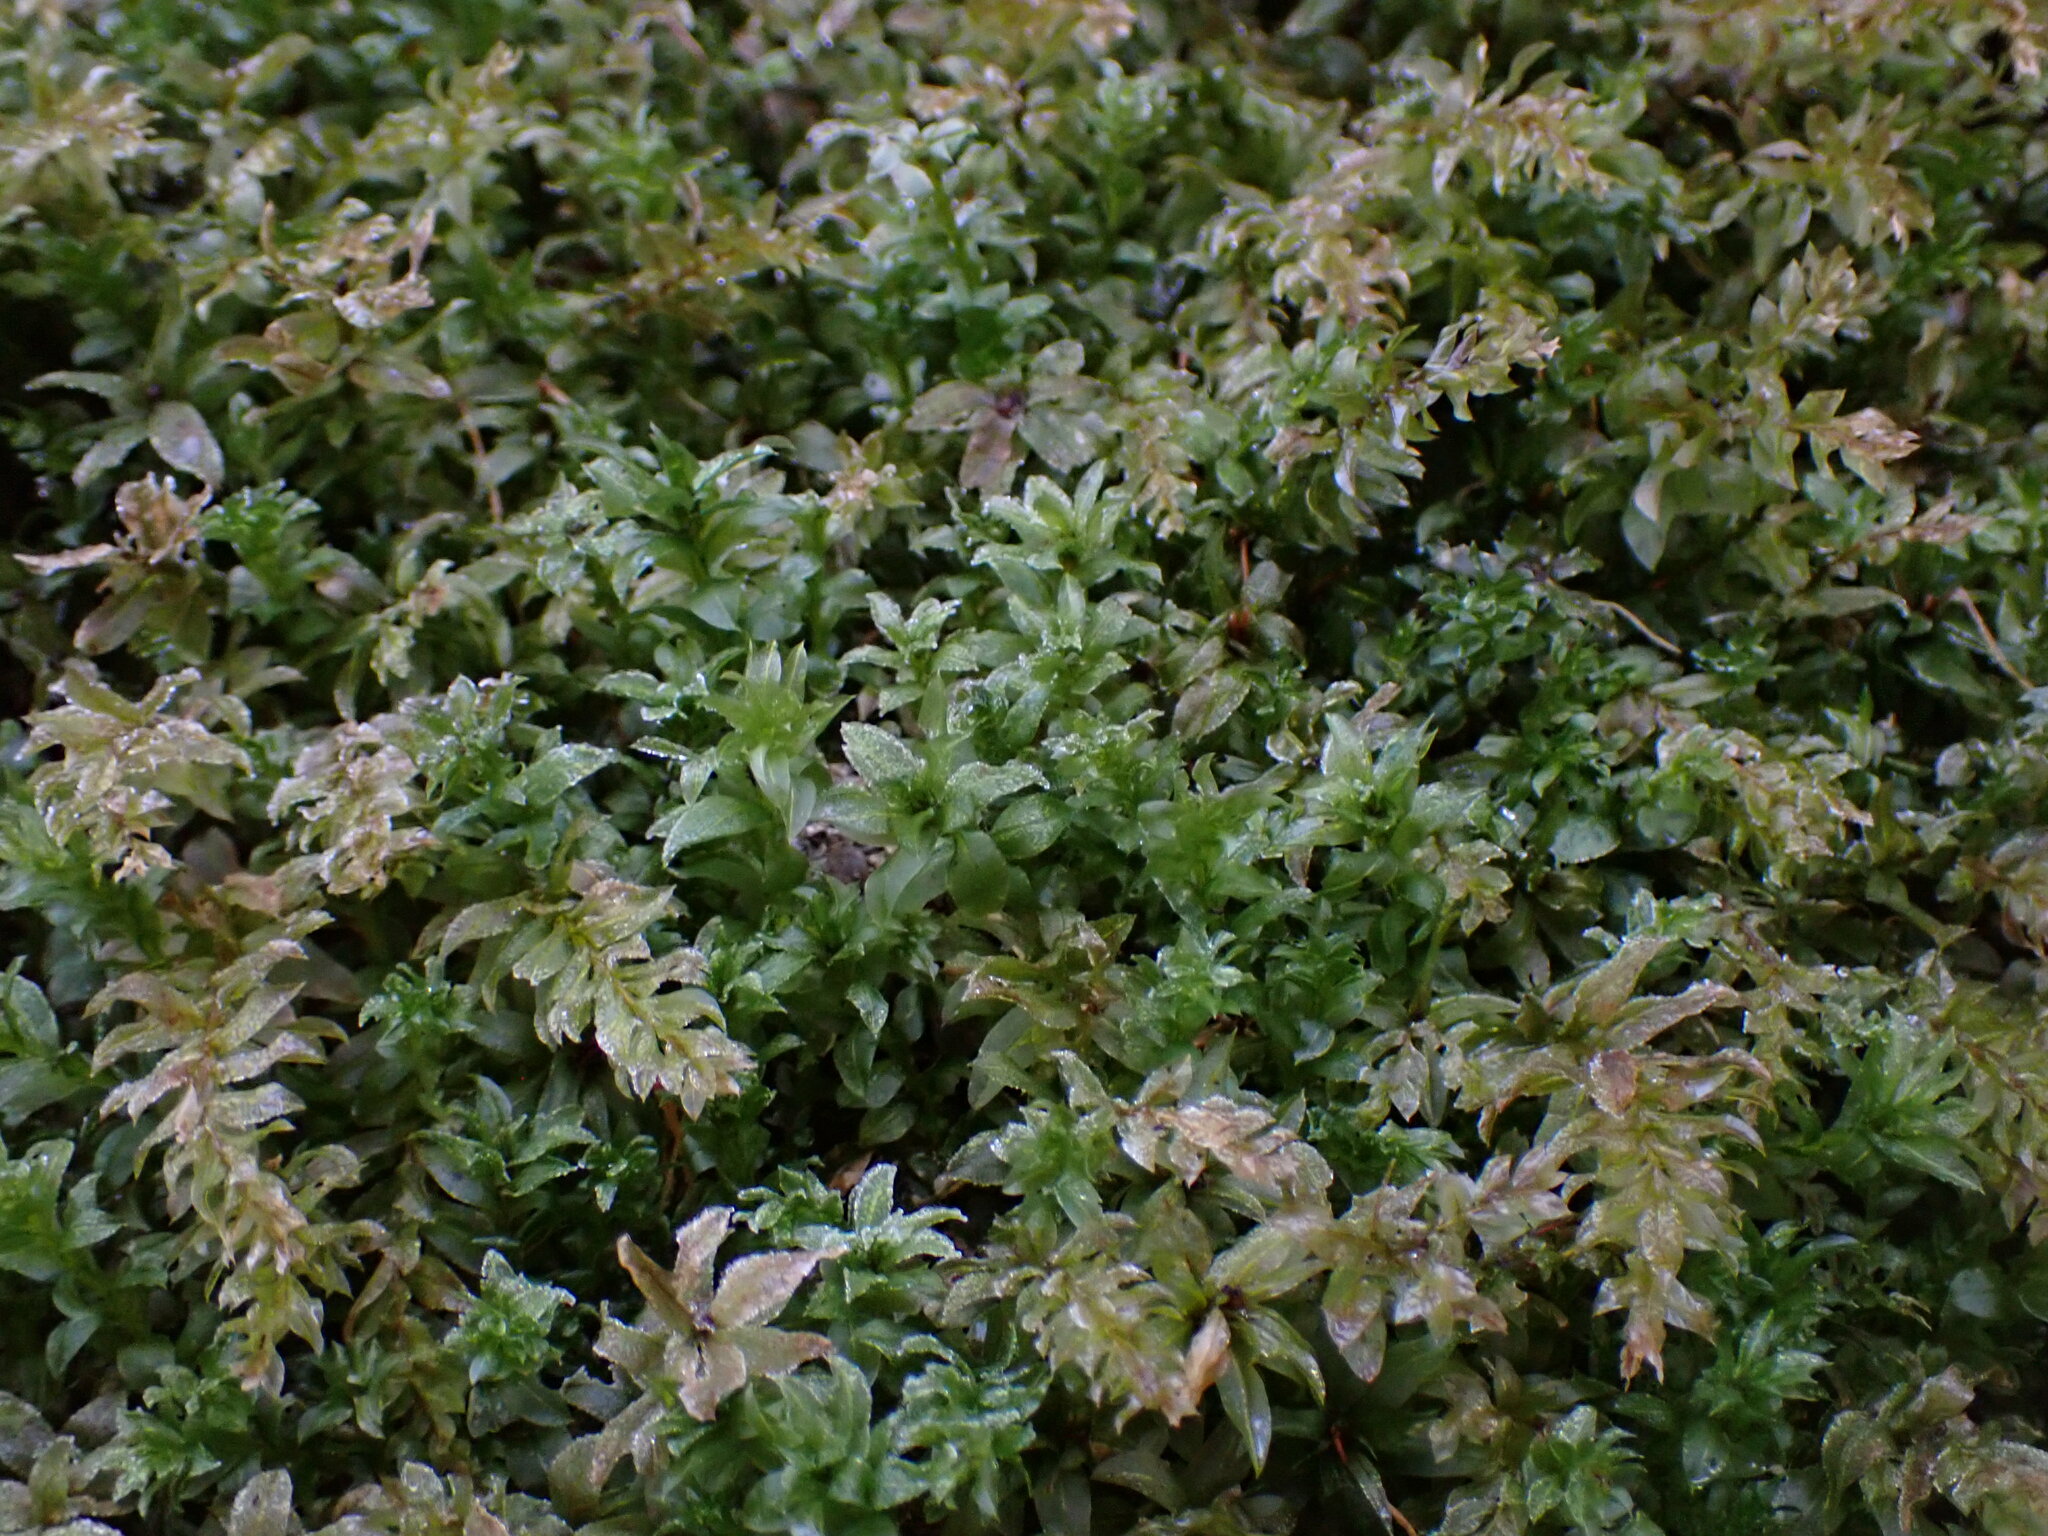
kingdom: Plantae
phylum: Bryophyta
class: Bryopsida
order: Bryales
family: Mniaceae
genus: Plagiomnium
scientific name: Plagiomnium insigne
